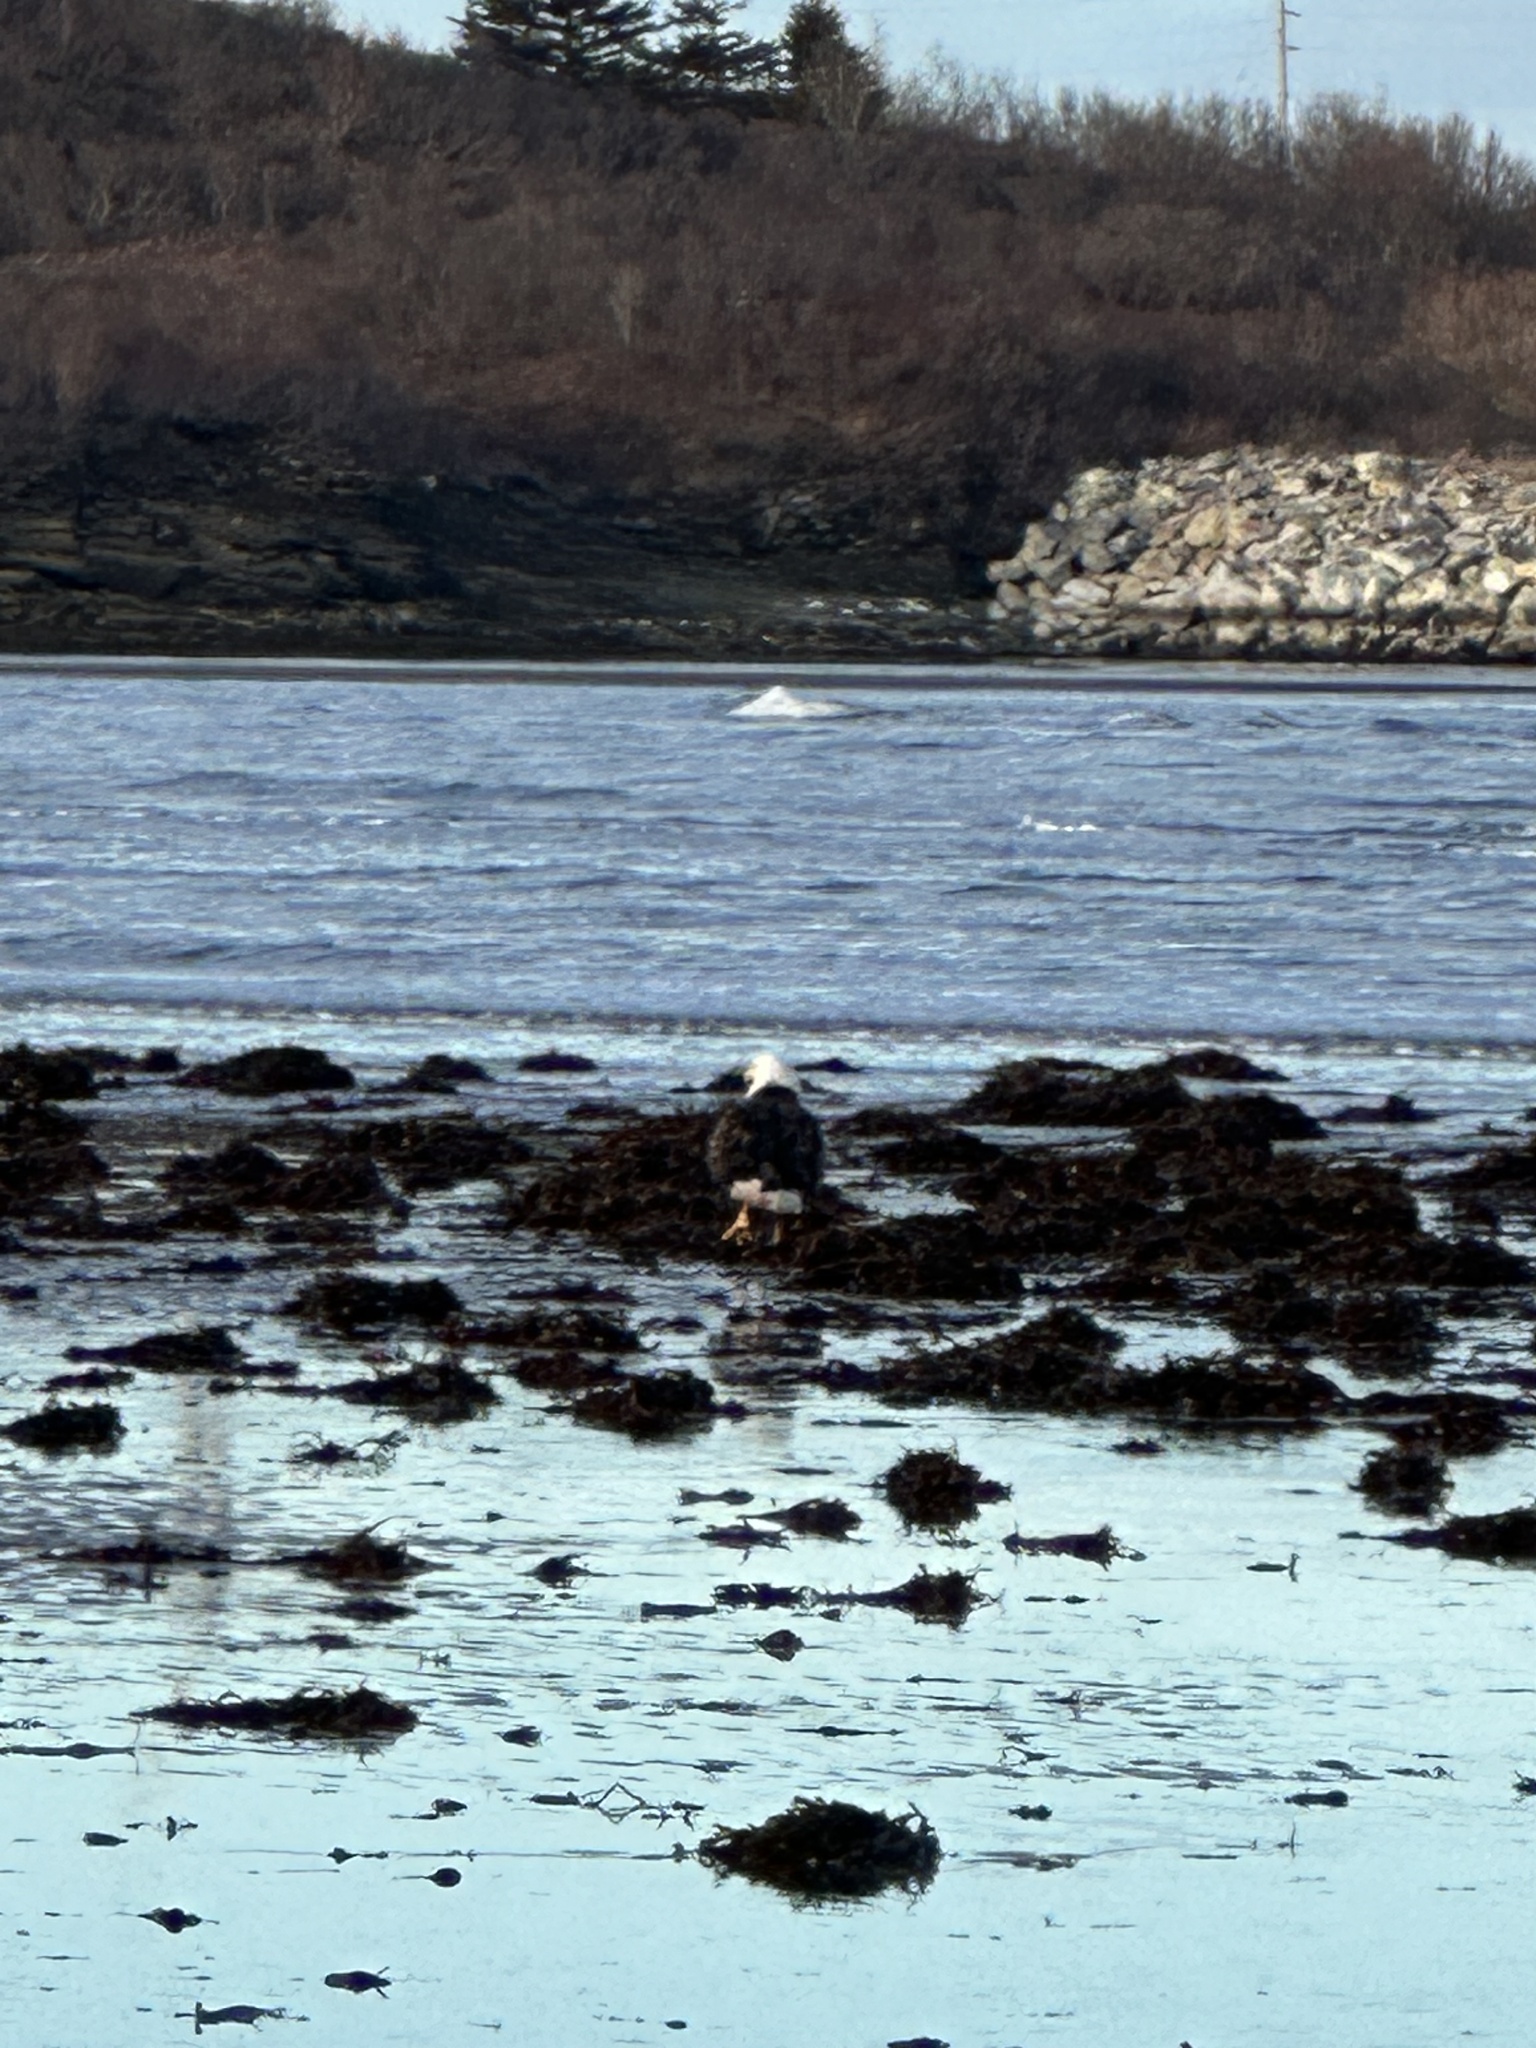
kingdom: Animalia
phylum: Chordata
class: Aves
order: Accipitriformes
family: Accipitridae
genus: Haliaeetus
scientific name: Haliaeetus leucocephalus
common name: Bald eagle
